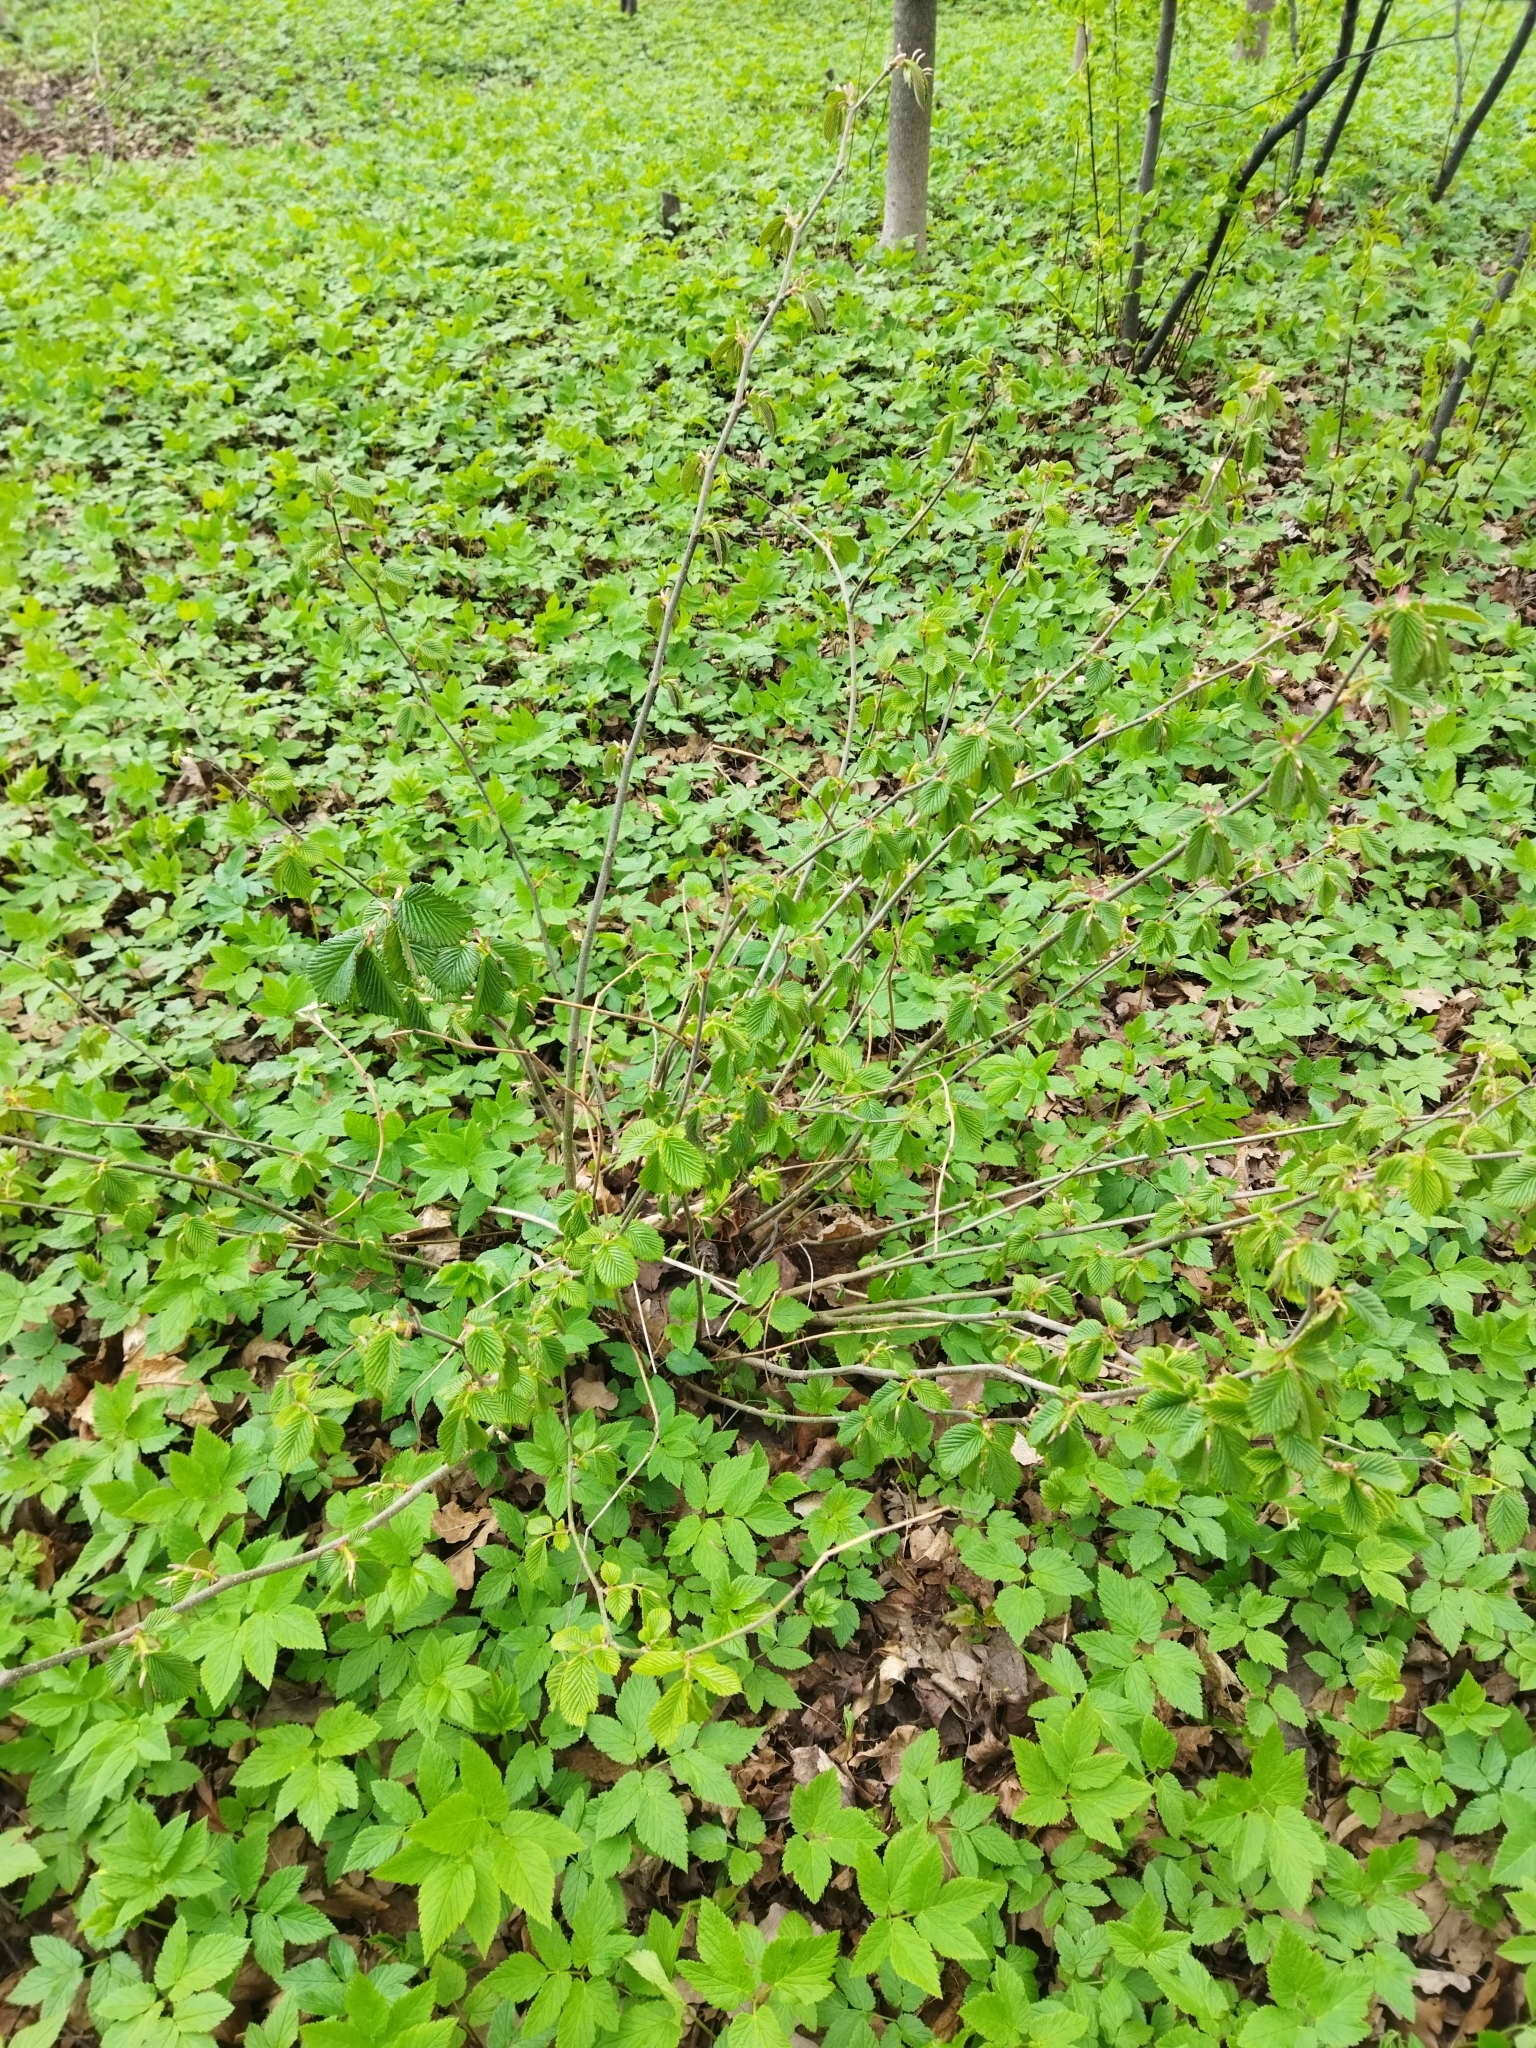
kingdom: Plantae
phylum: Tracheophyta
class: Magnoliopsida
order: Fagales
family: Betulaceae
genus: Corylus
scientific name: Corylus avellana
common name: European hazel
